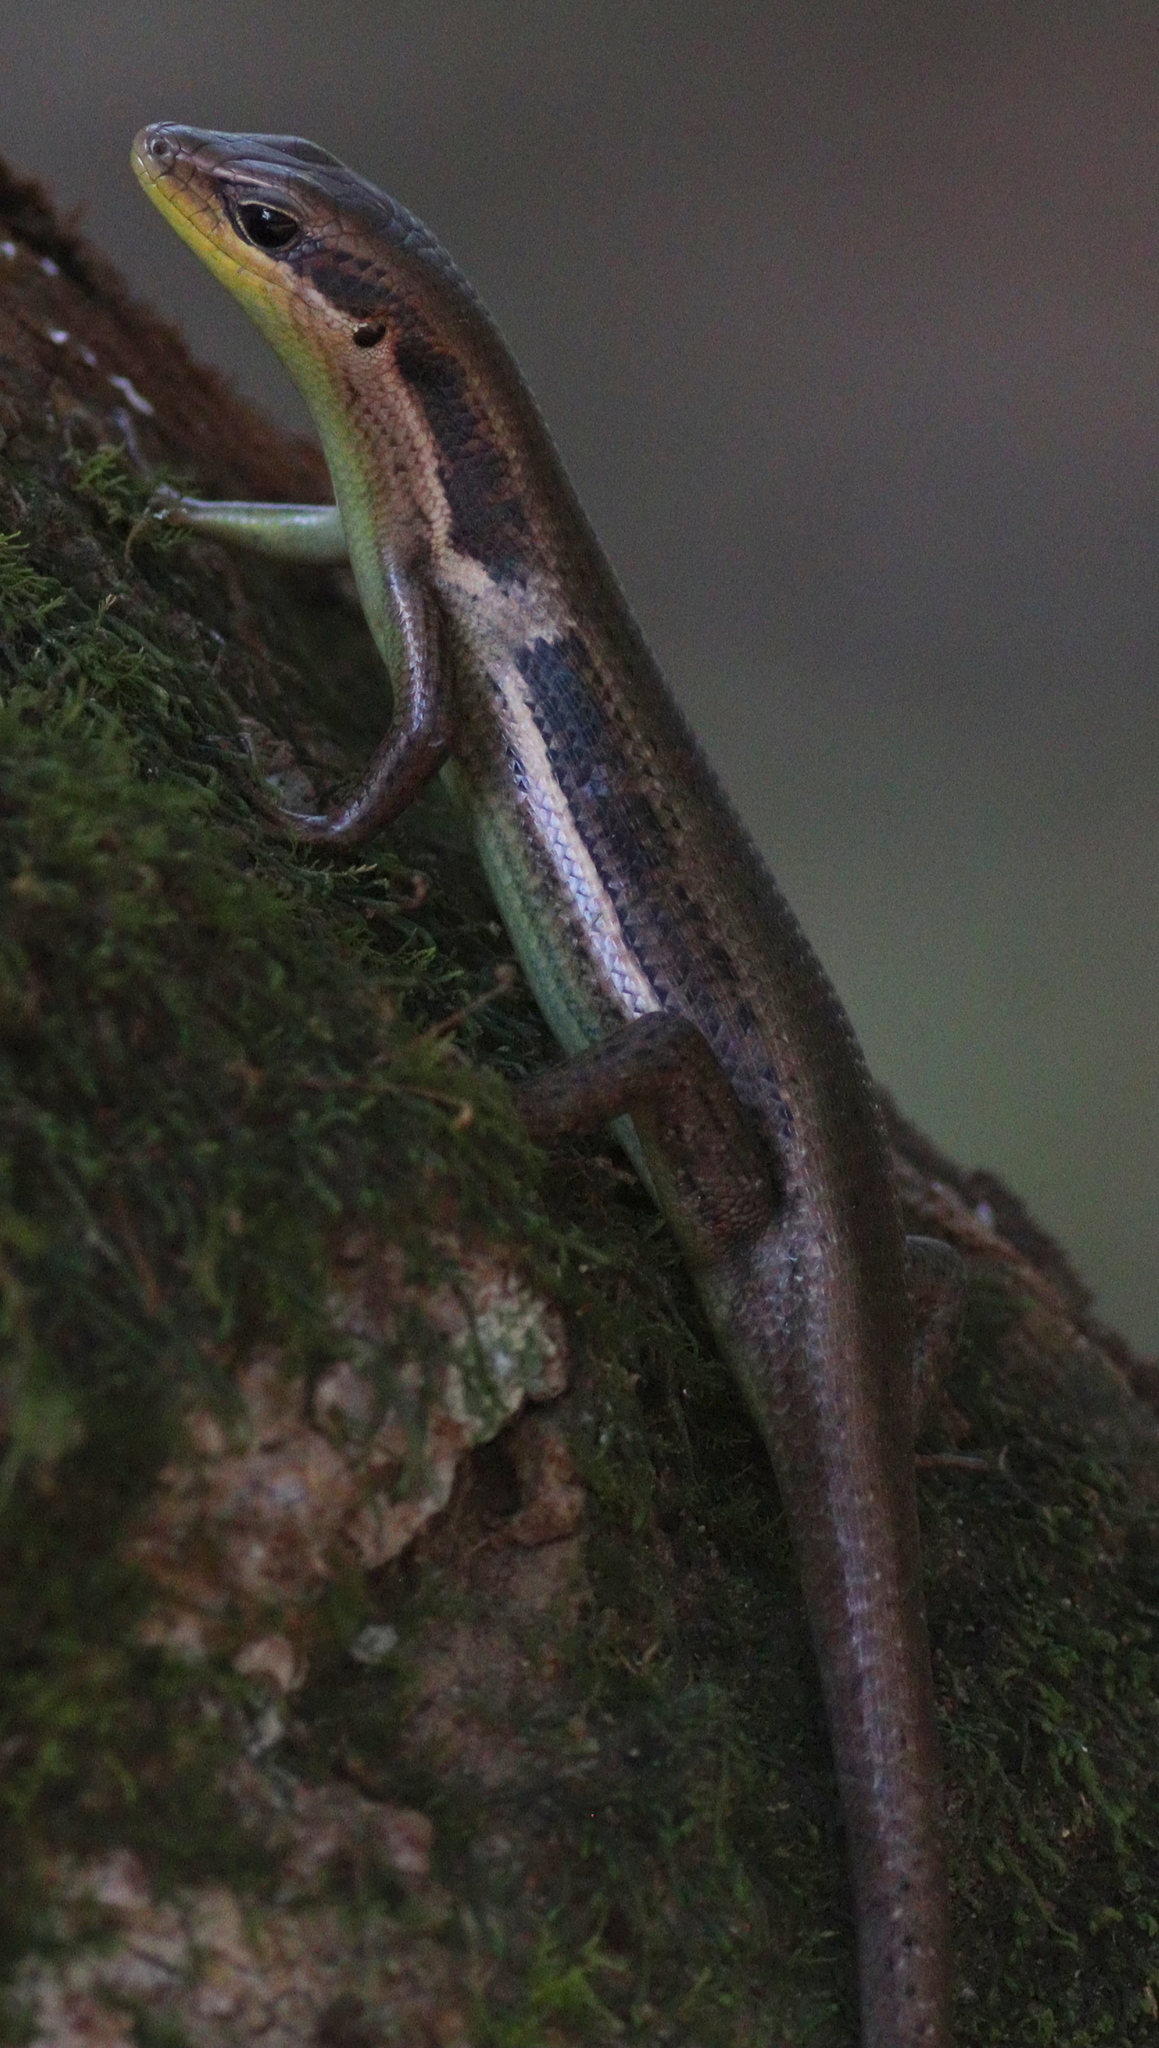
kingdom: Animalia
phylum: Chordata
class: Squamata
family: Scincidae
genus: Trachylepis
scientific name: Trachylepis affinis
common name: Senegal mabuya
